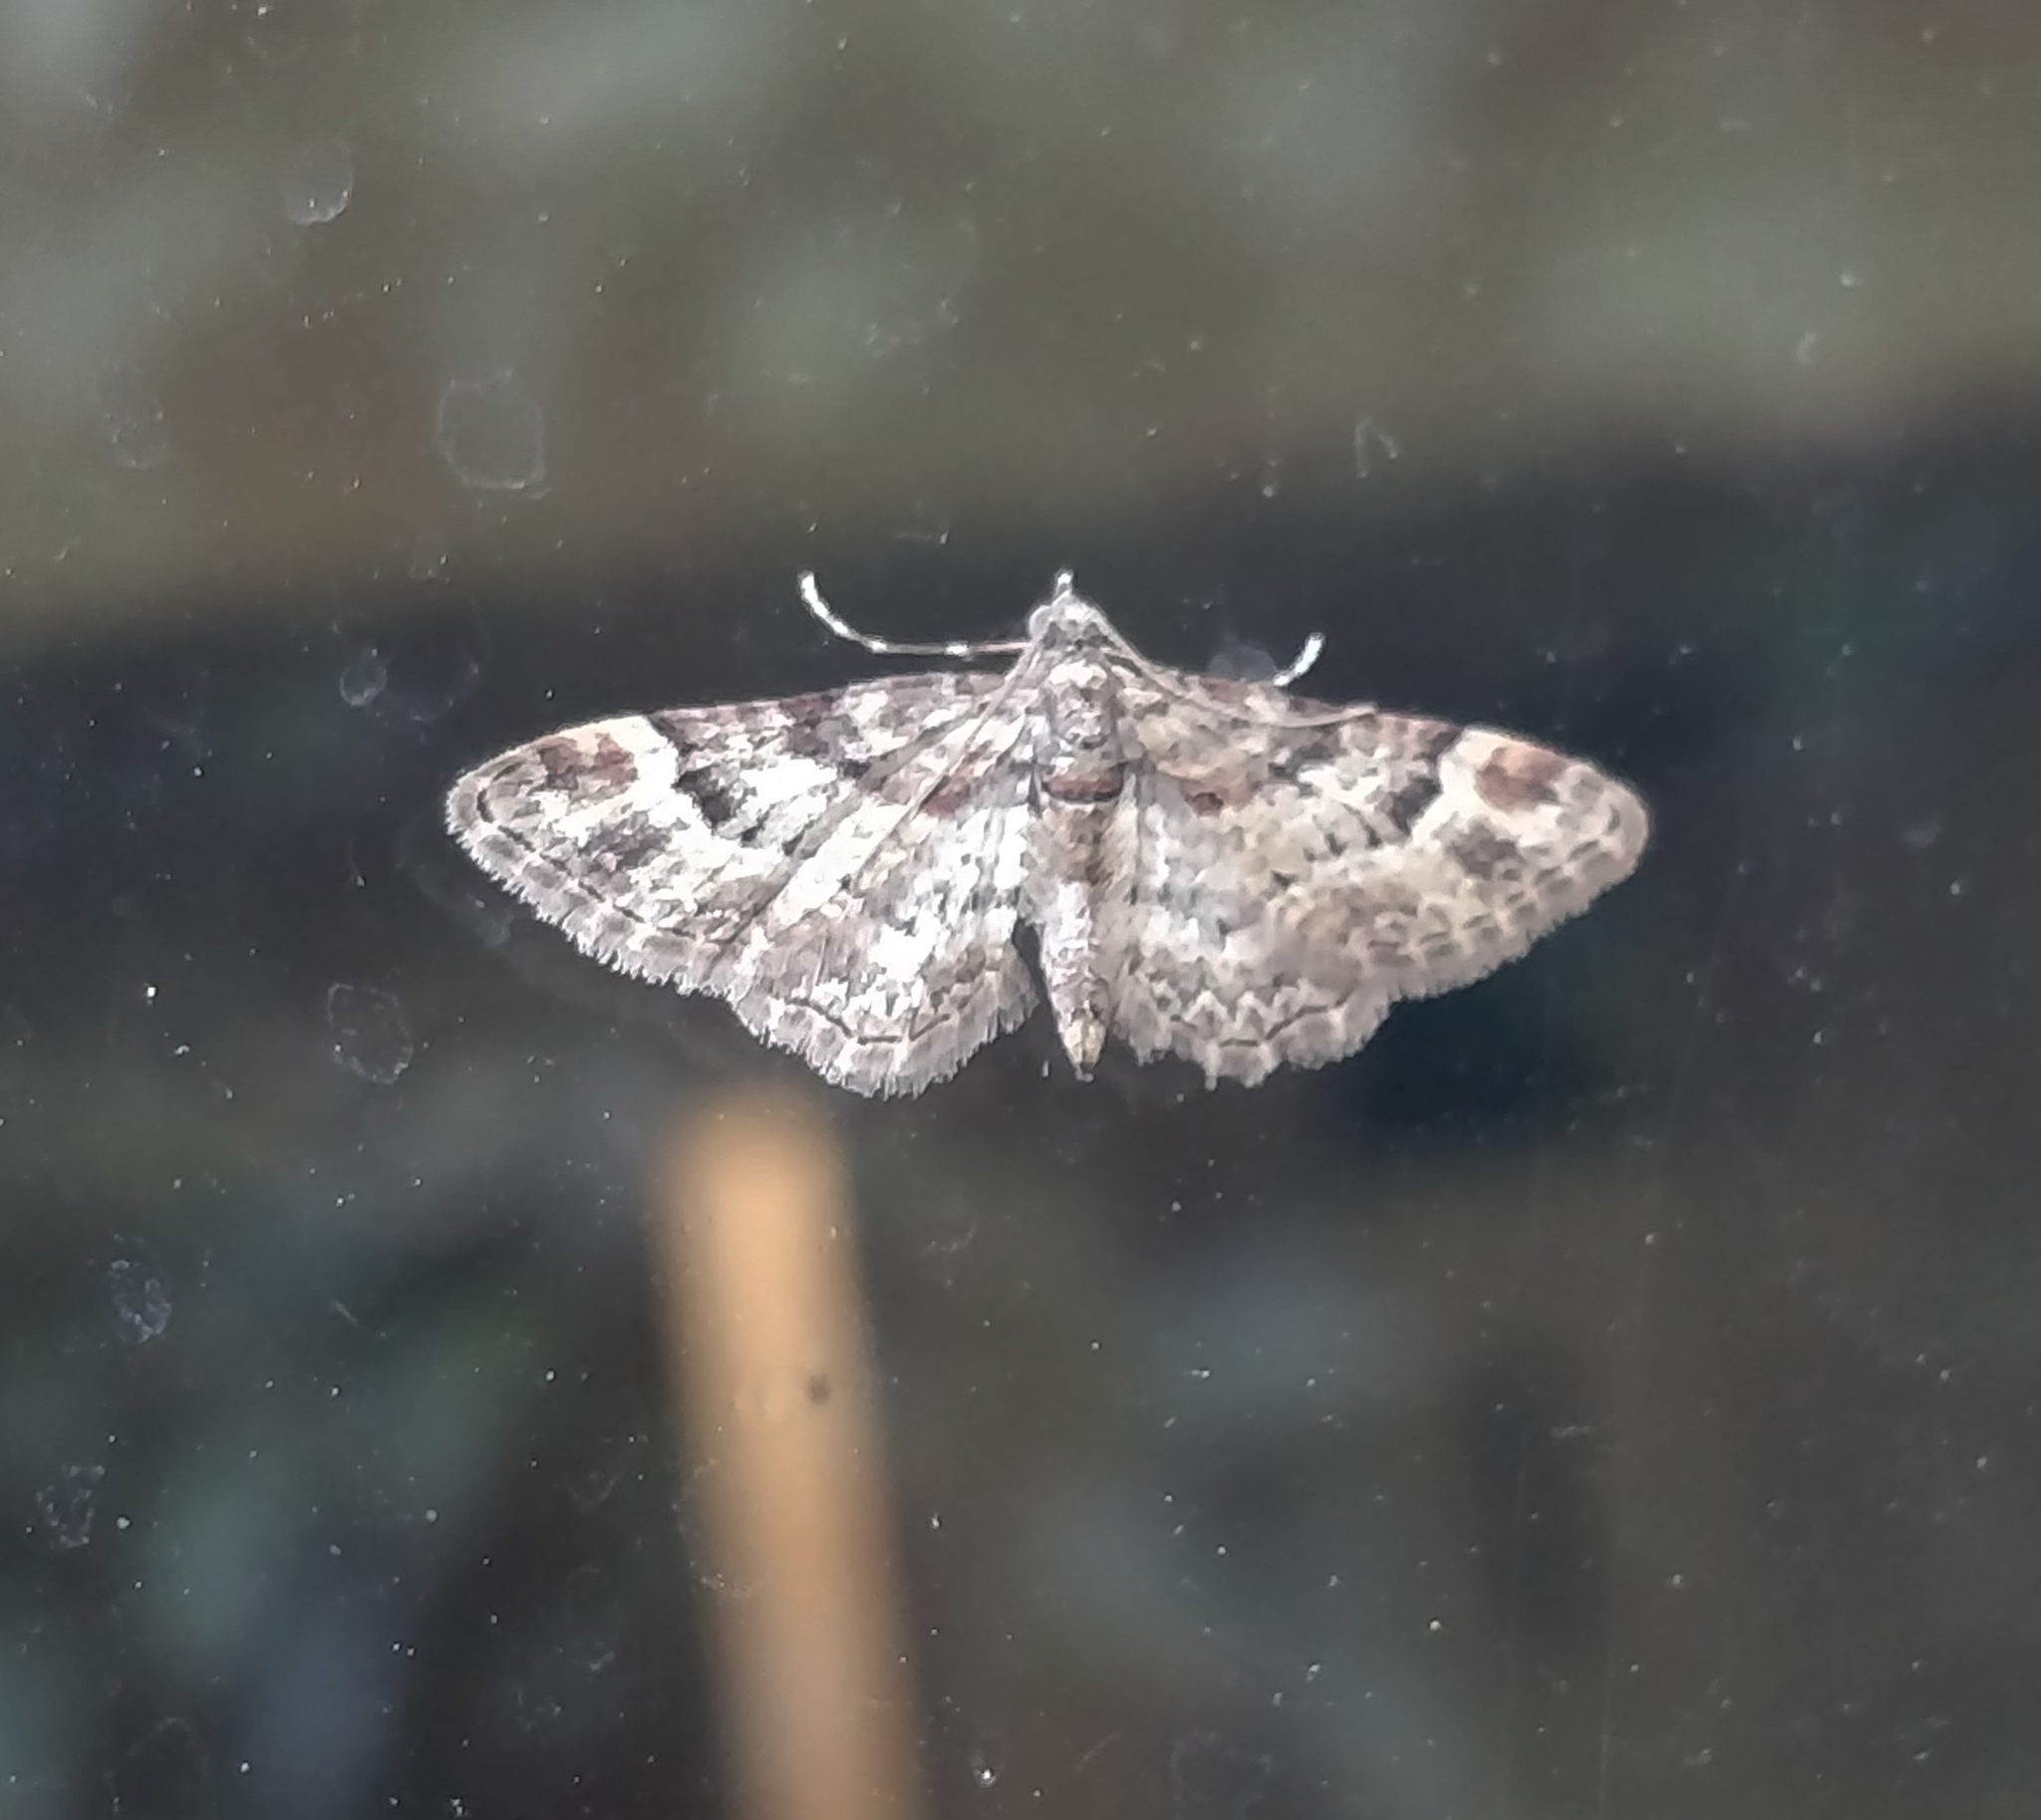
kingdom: Animalia
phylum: Arthropoda
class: Insecta
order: Lepidoptera
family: Geometridae
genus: Gymnoscelis
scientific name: Gymnoscelis rufifasciata
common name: Double-striped pug
